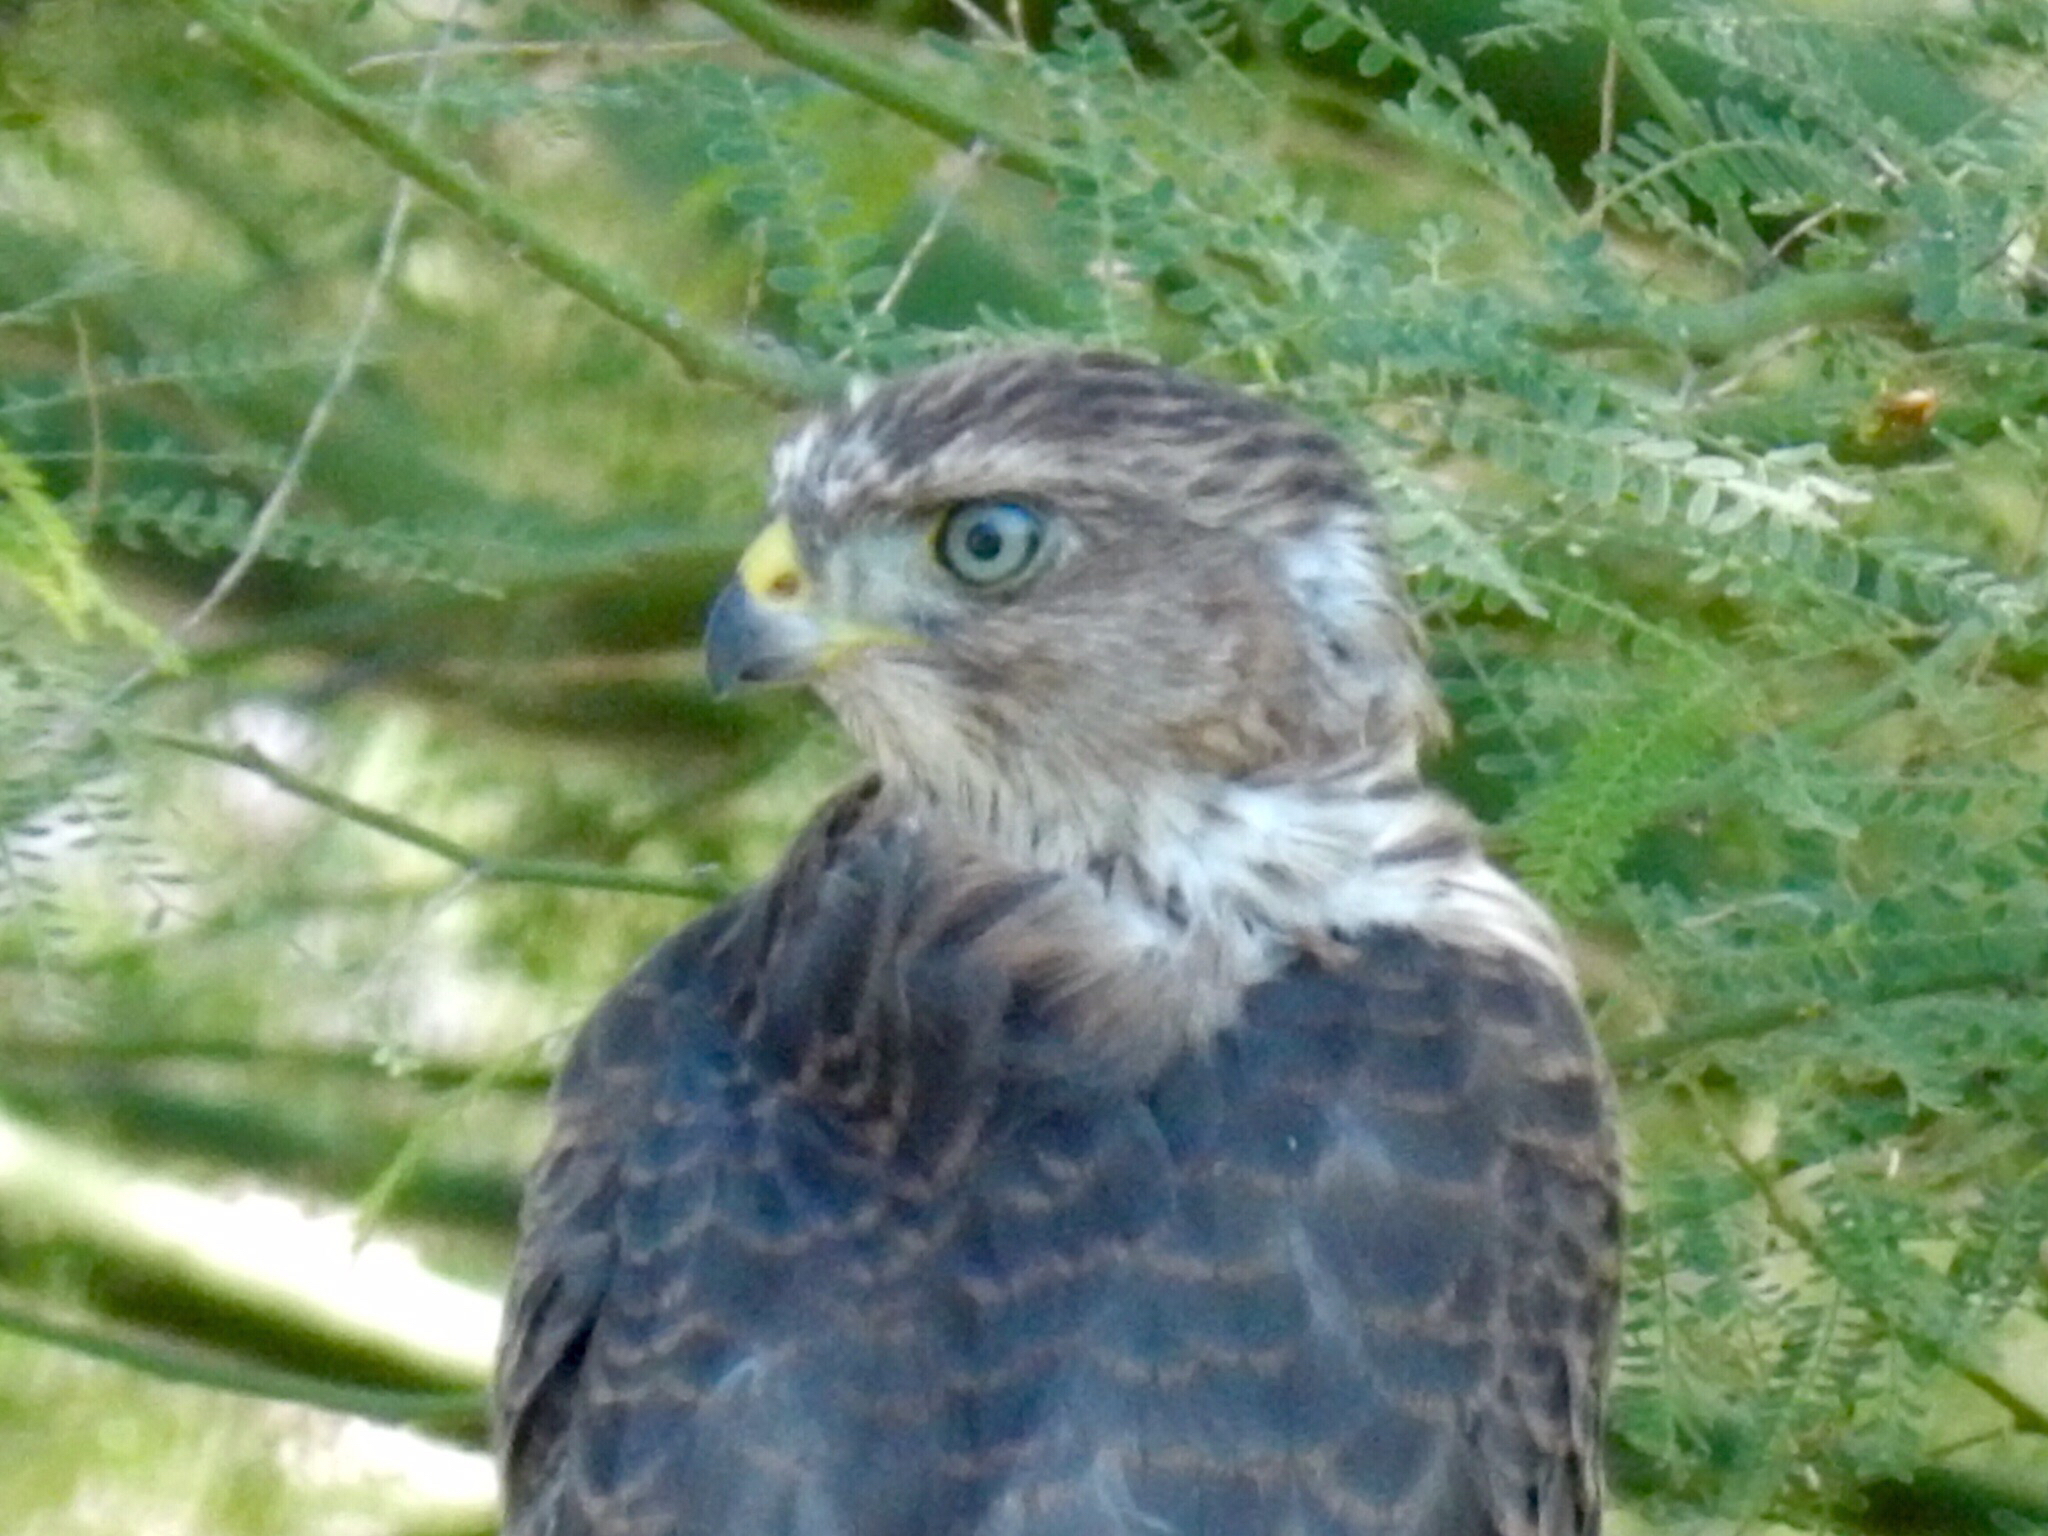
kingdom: Animalia
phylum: Chordata
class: Aves
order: Accipitriformes
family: Accipitridae
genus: Accipiter
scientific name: Accipiter cooperii
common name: Cooper's hawk
